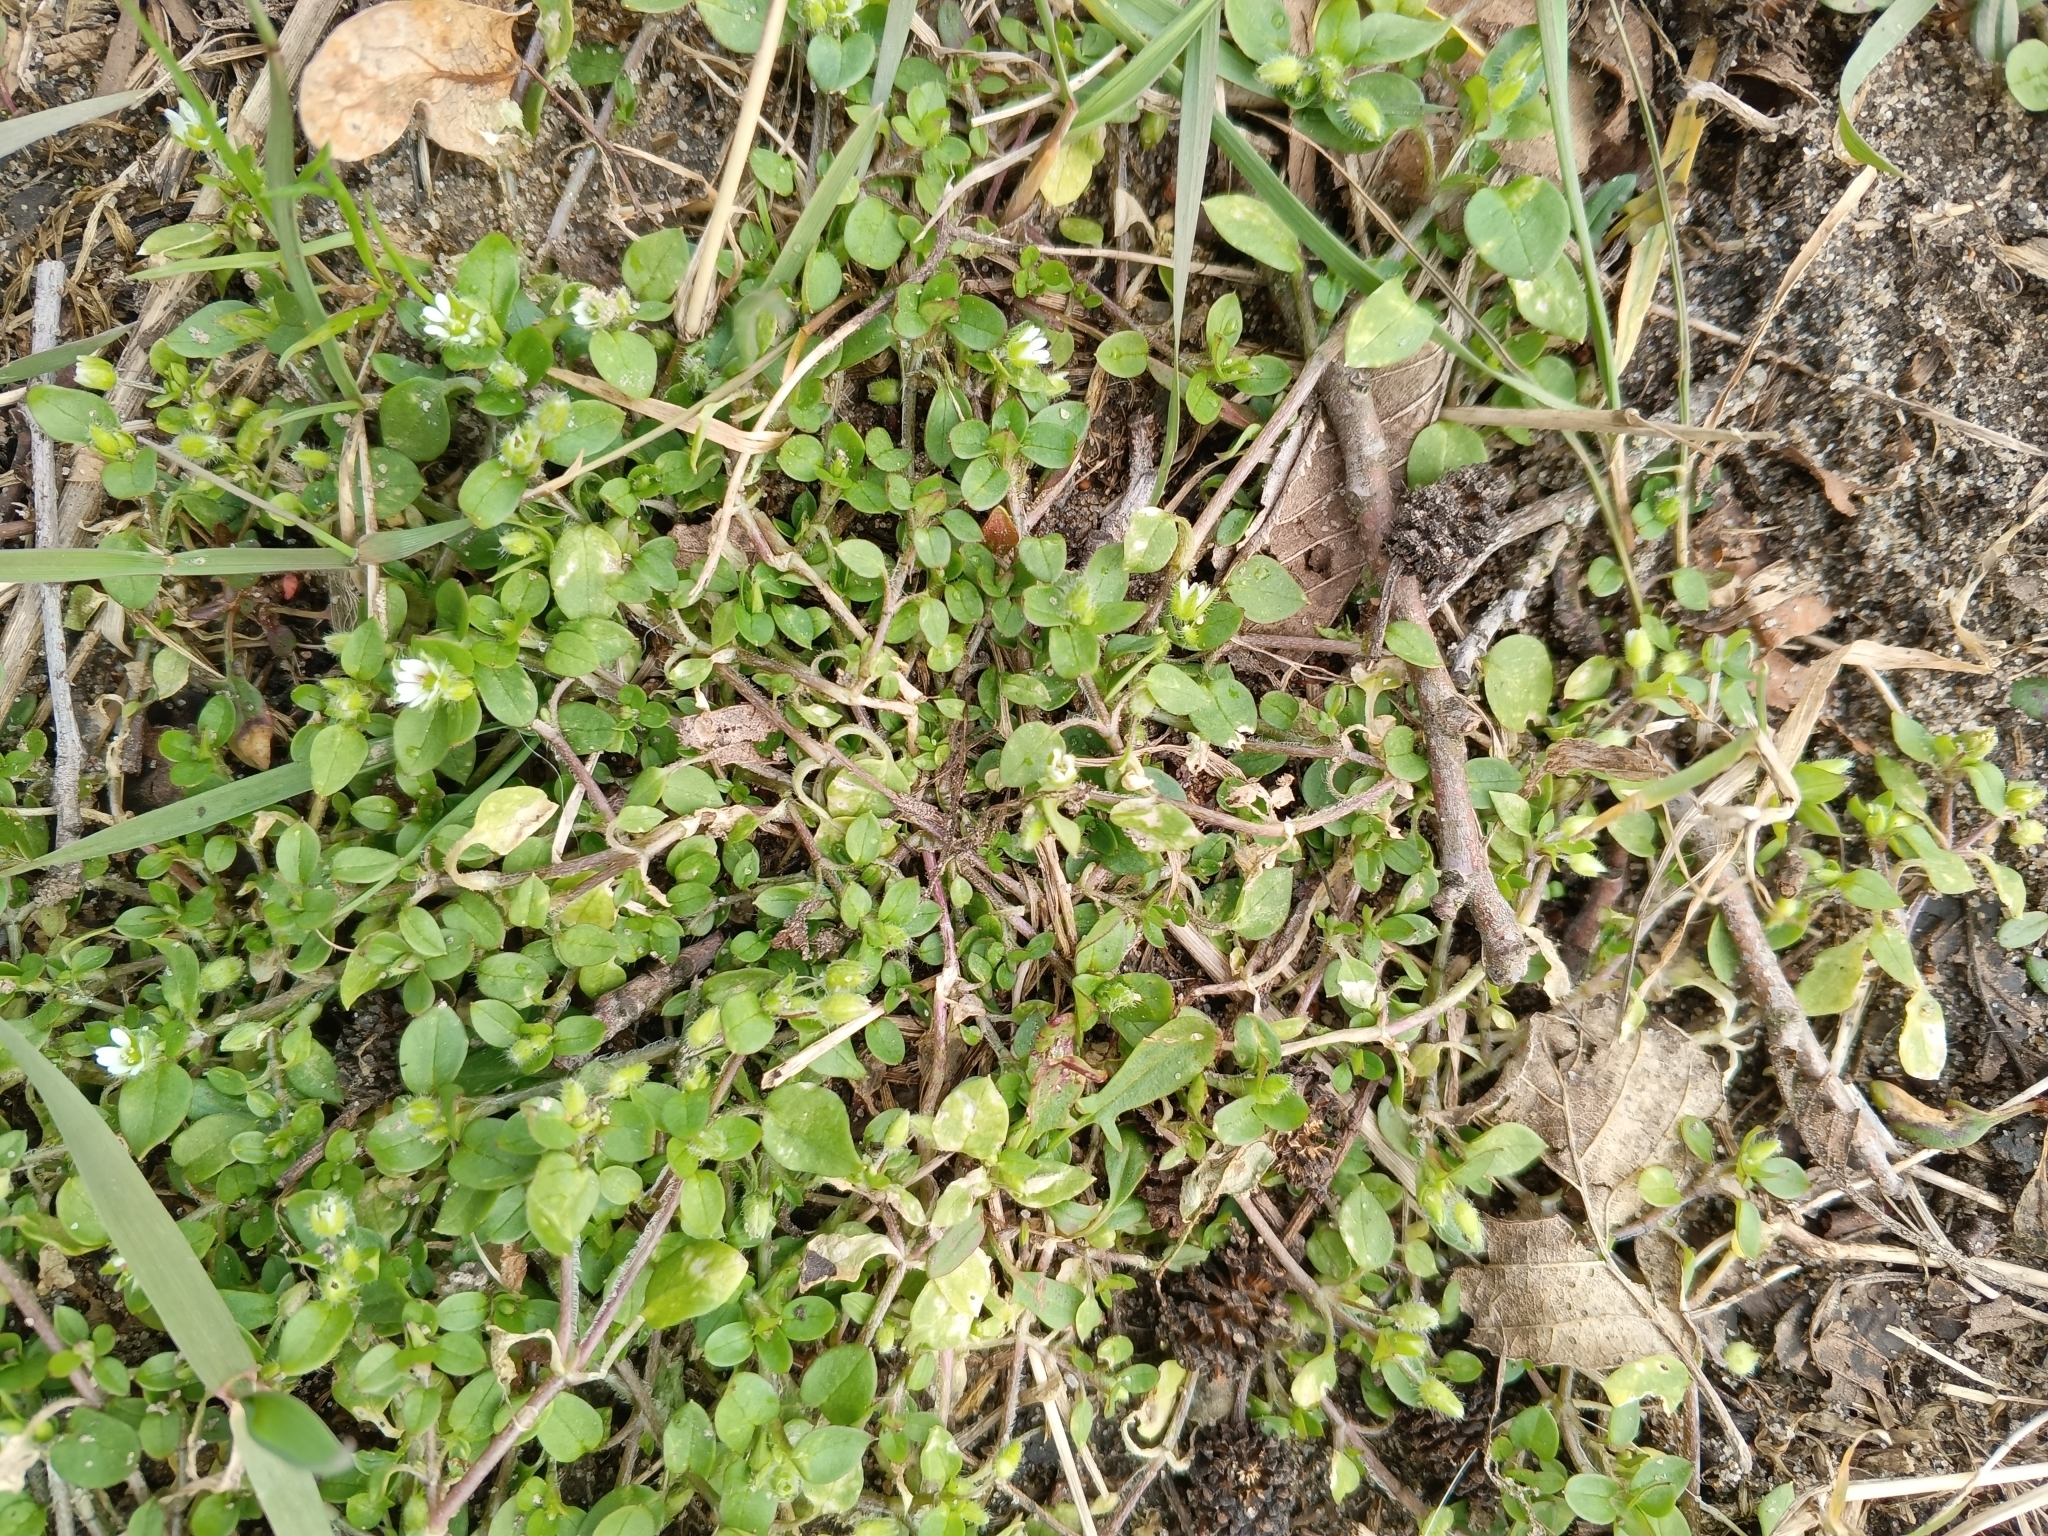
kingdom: Plantae
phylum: Tracheophyta
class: Magnoliopsida
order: Caryophyllales
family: Caryophyllaceae
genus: Stellaria
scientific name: Stellaria media
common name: Common chickweed
